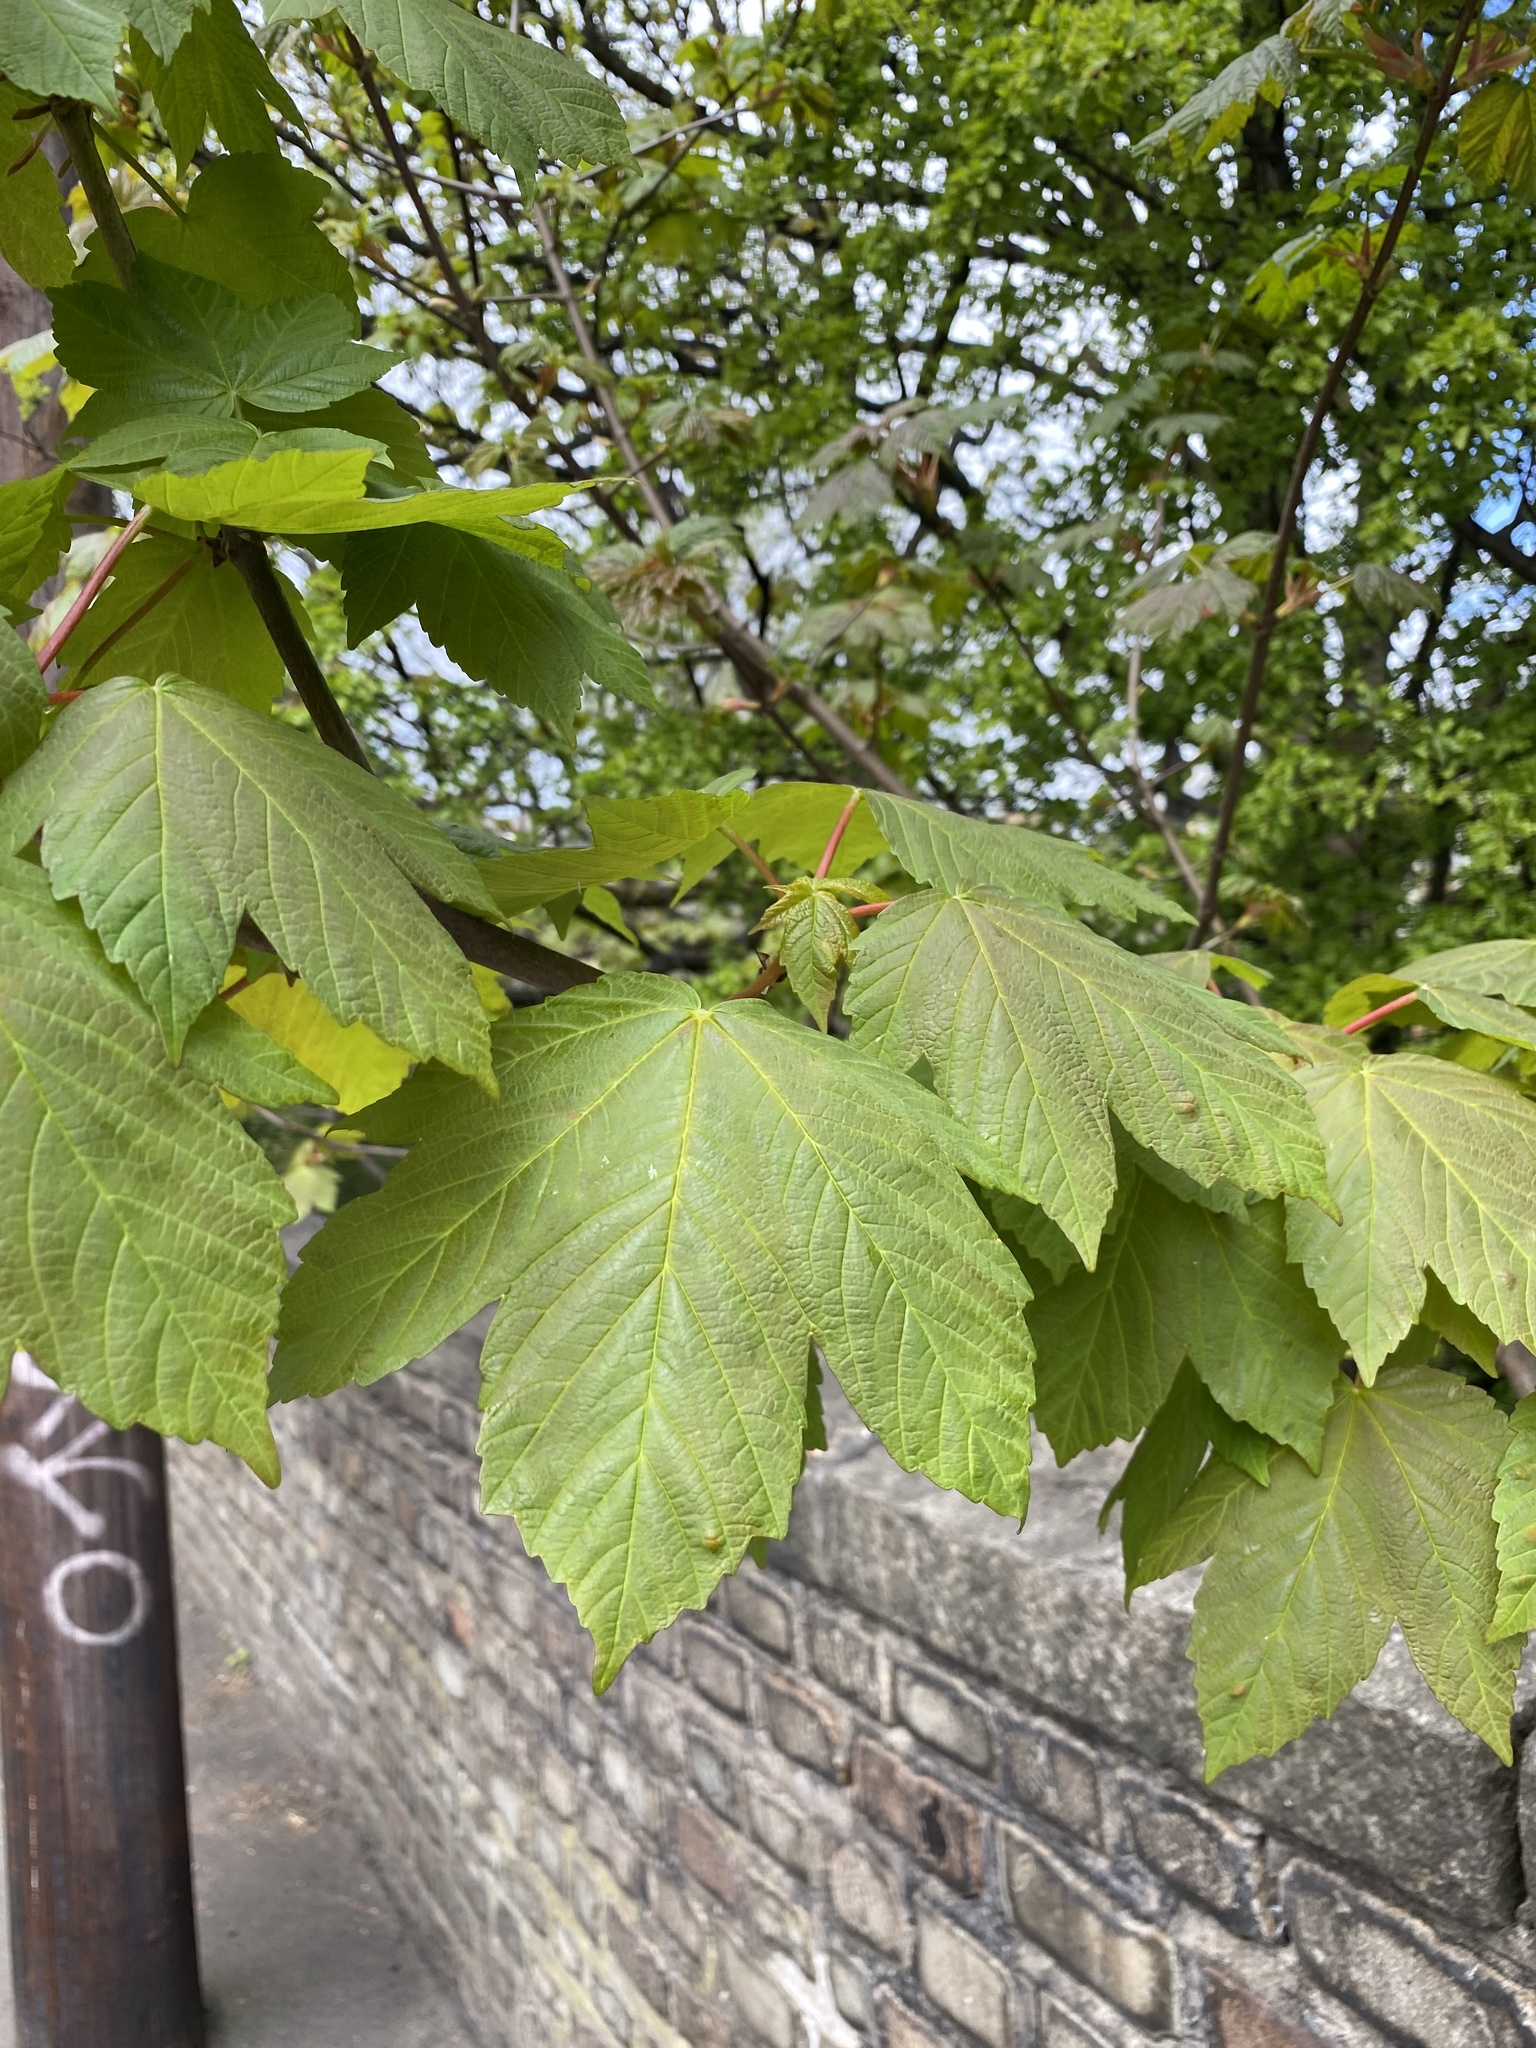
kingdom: Plantae
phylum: Tracheophyta
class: Magnoliopsida
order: Sapindales
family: Sapindaceae
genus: Acer
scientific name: Acer pseudoplatanus
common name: Sycamore
